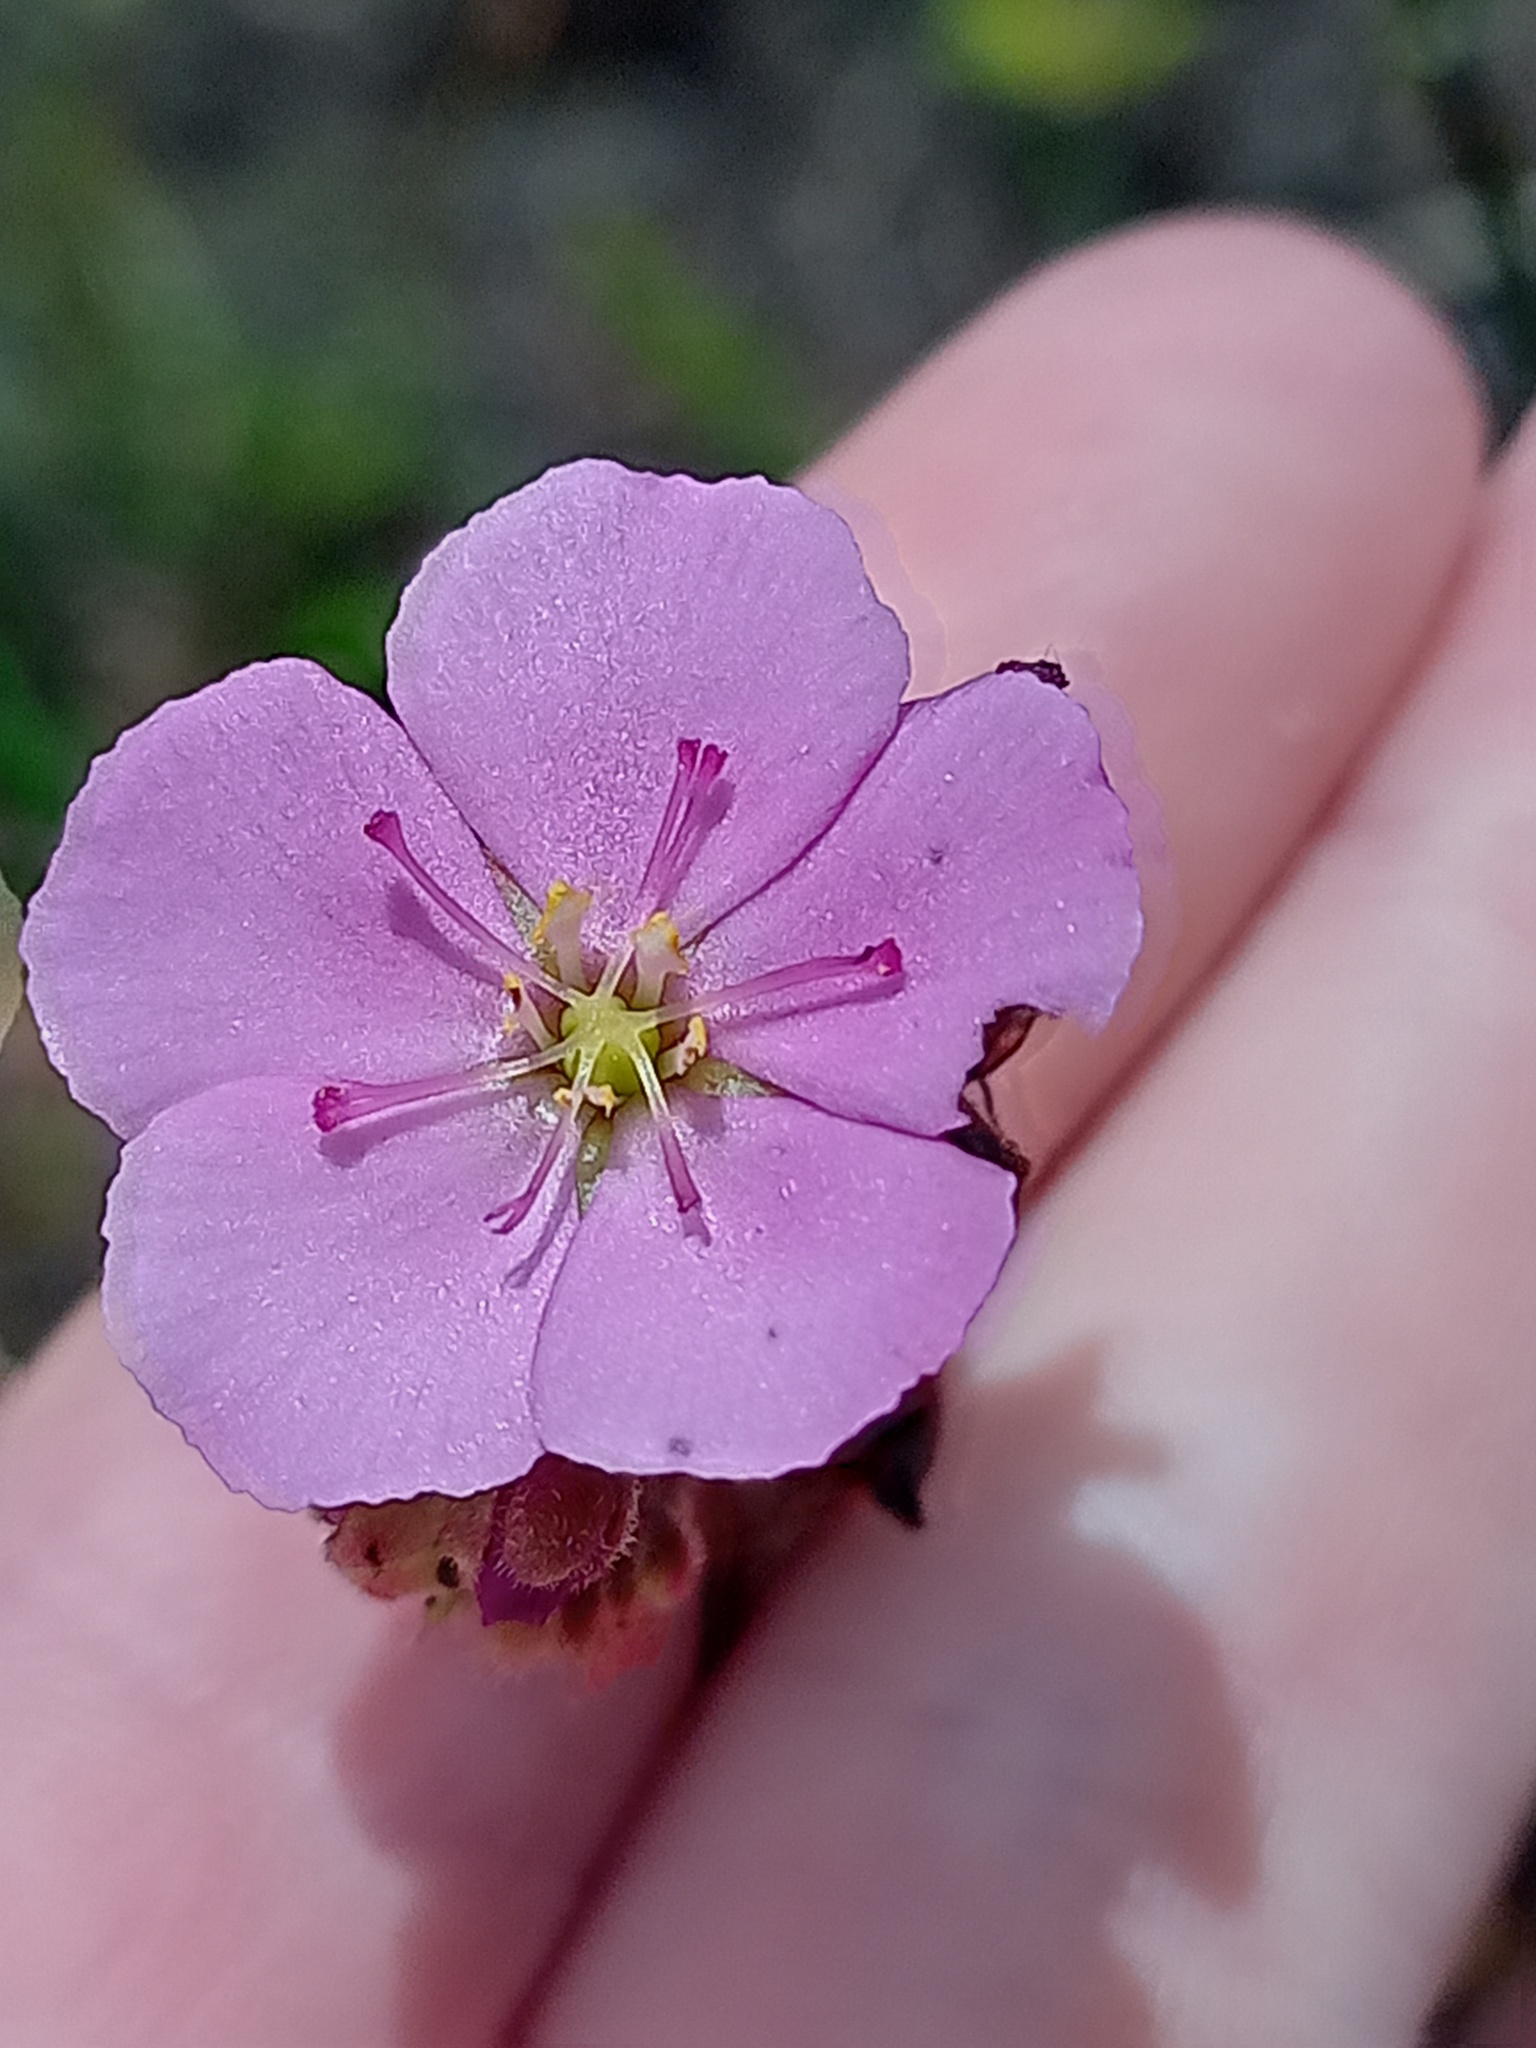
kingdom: Plantae
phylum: Tracheophyta
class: Magnoliopsida
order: Caryophyllales
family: Droseraceae
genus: Drosera
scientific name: Drosera capensis
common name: Cape sundew
